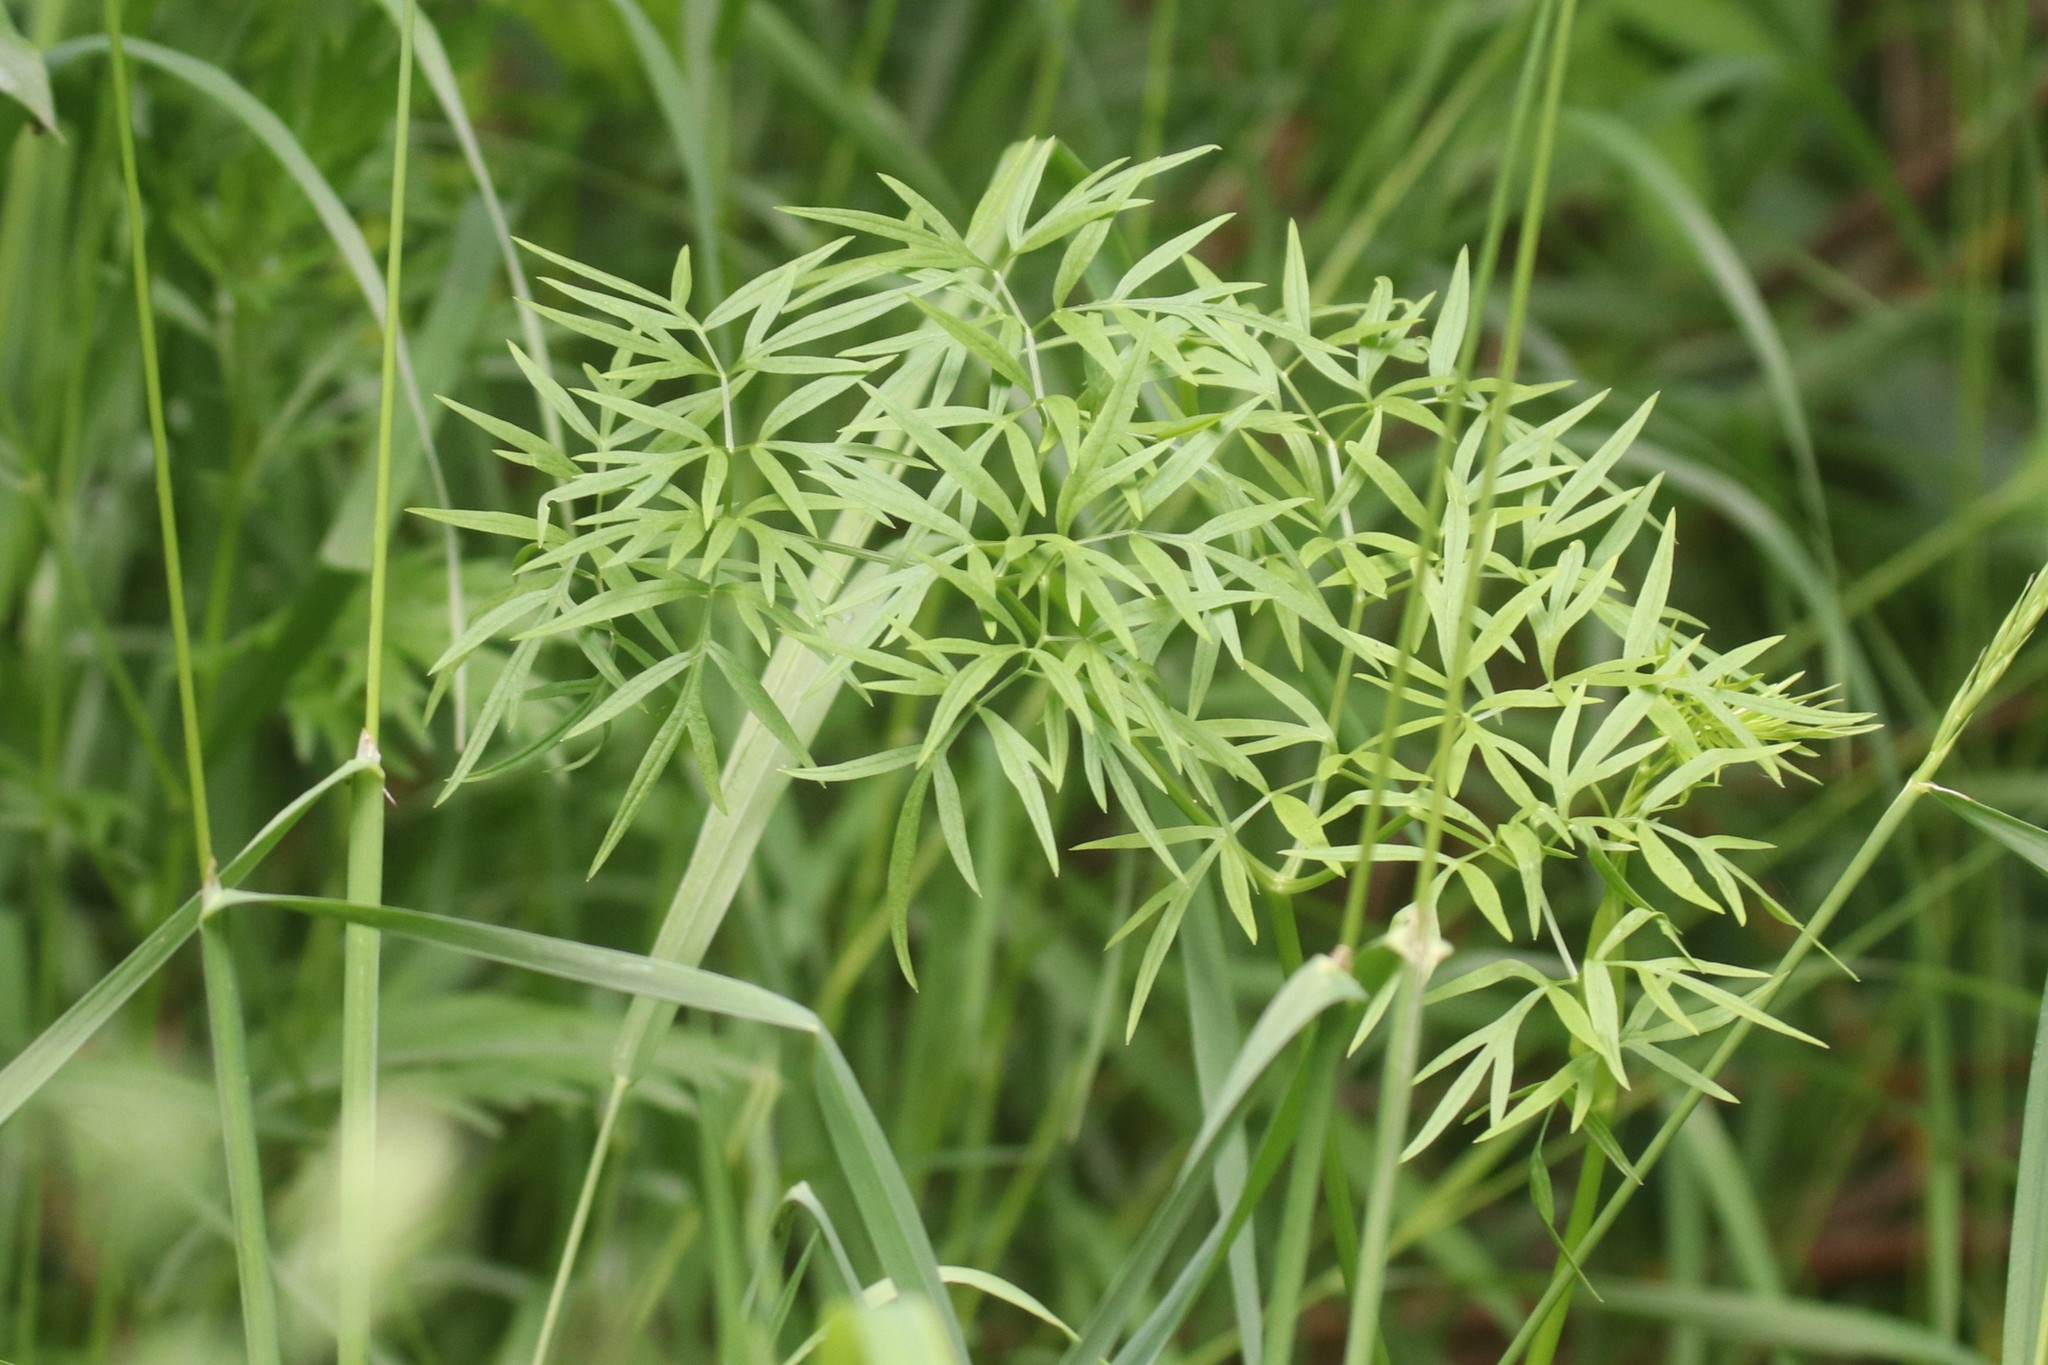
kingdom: Plantae
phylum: Tracheophyta
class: Magnoliopsida
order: Apiales
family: Apiaceae
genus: Cenolophium
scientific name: Cenolophium fischeri
